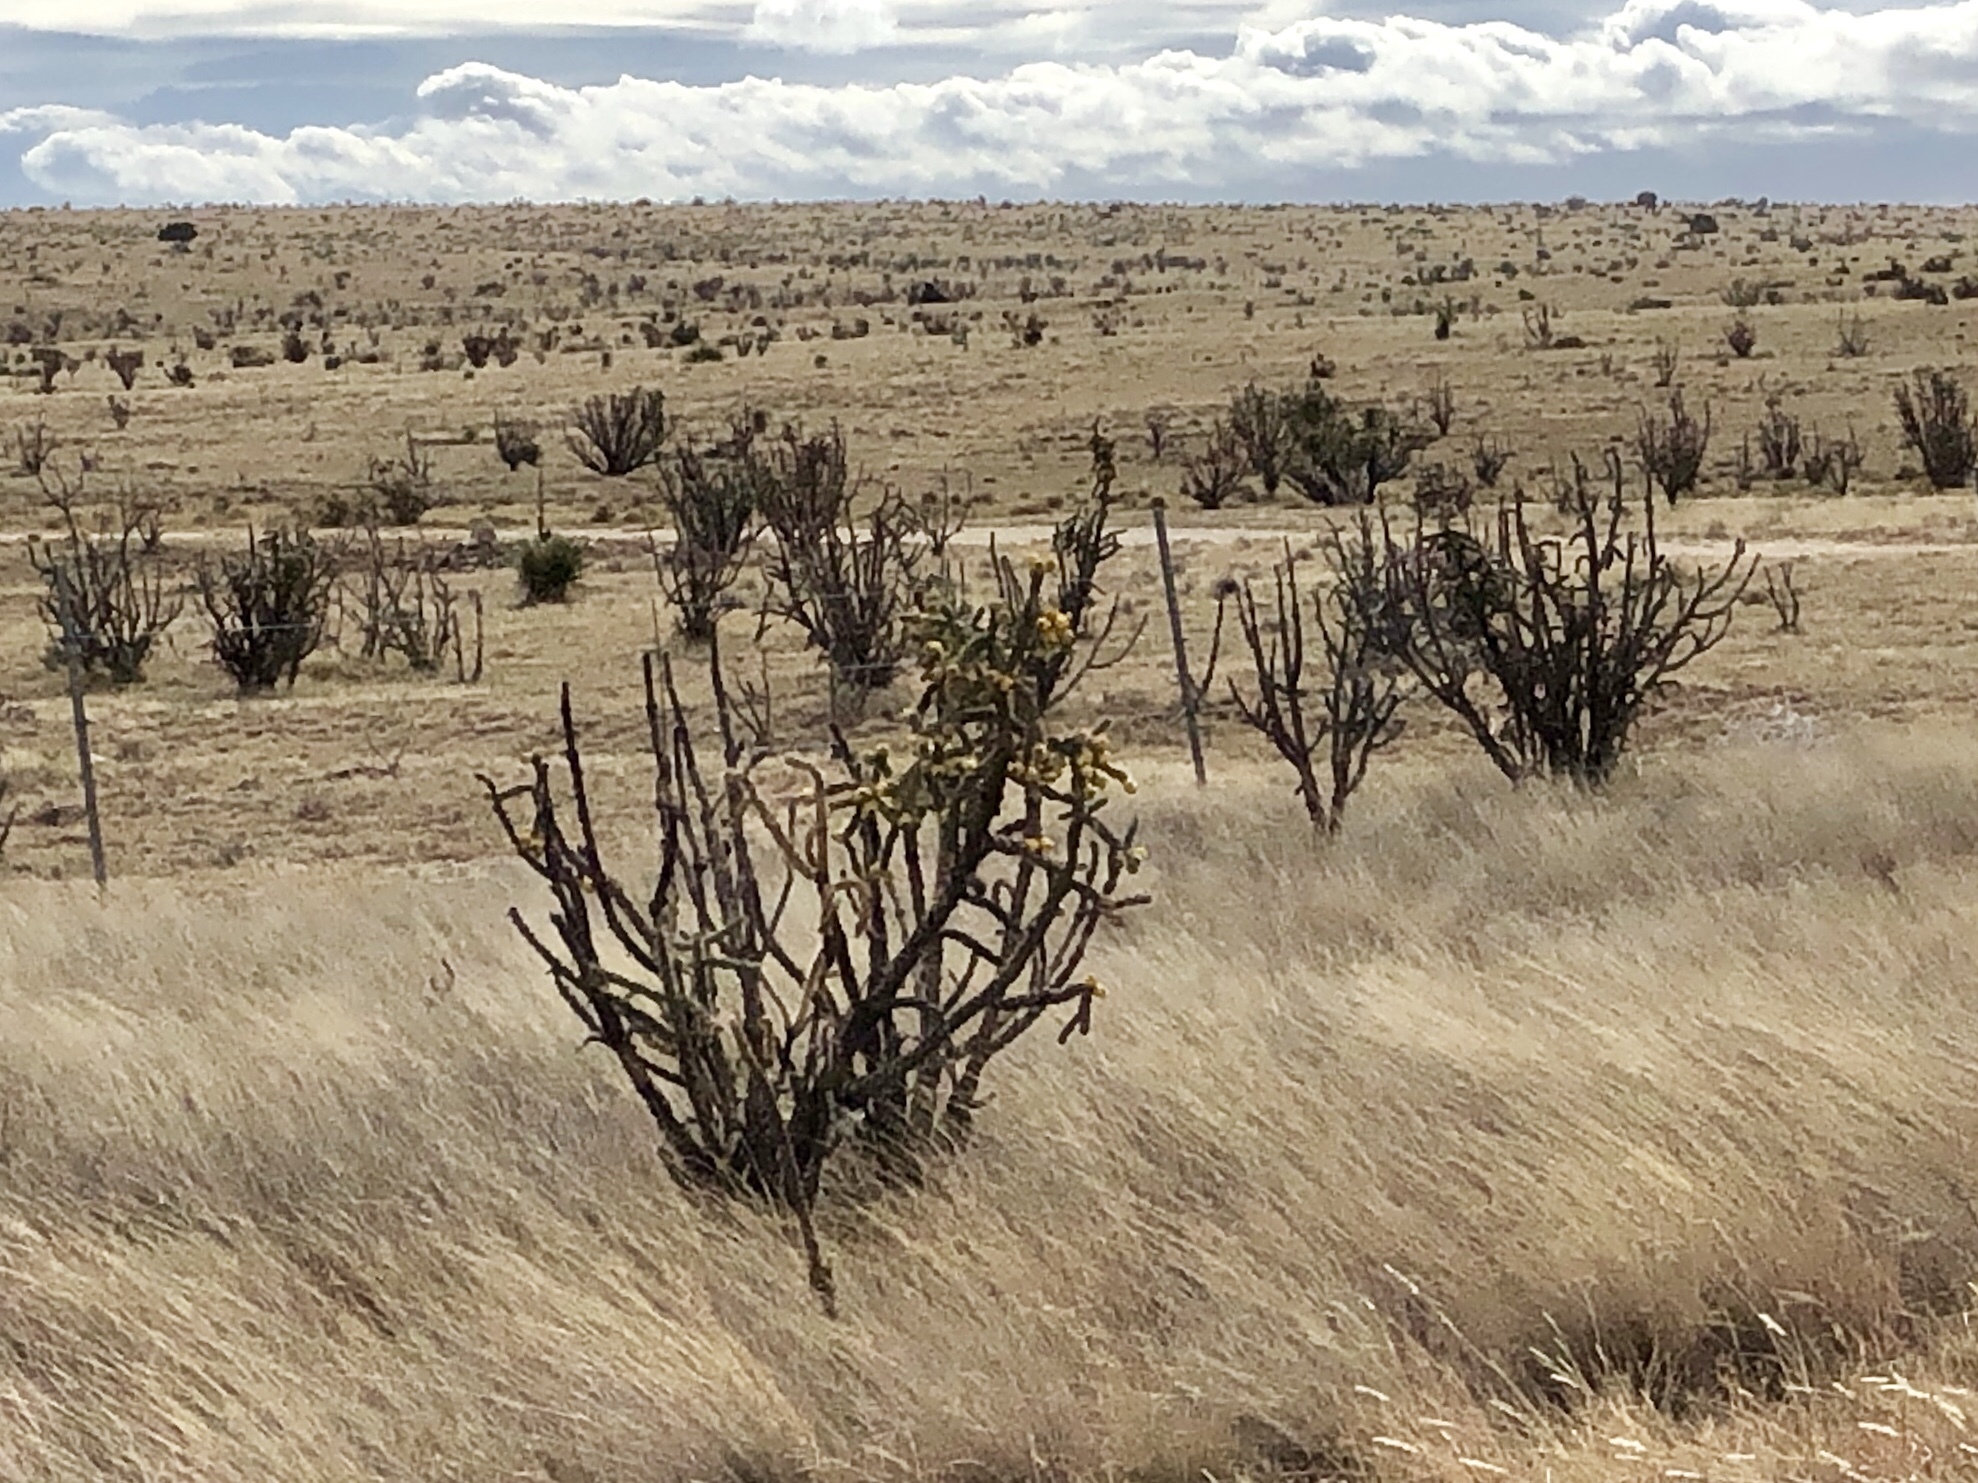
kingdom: Plantae
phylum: Tracheophyta
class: Magnoliopsida
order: Caryophyllales
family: Cactaceae
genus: Cylindropuntia
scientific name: Cylindropuntia imbricata
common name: Candelabrum cactus
